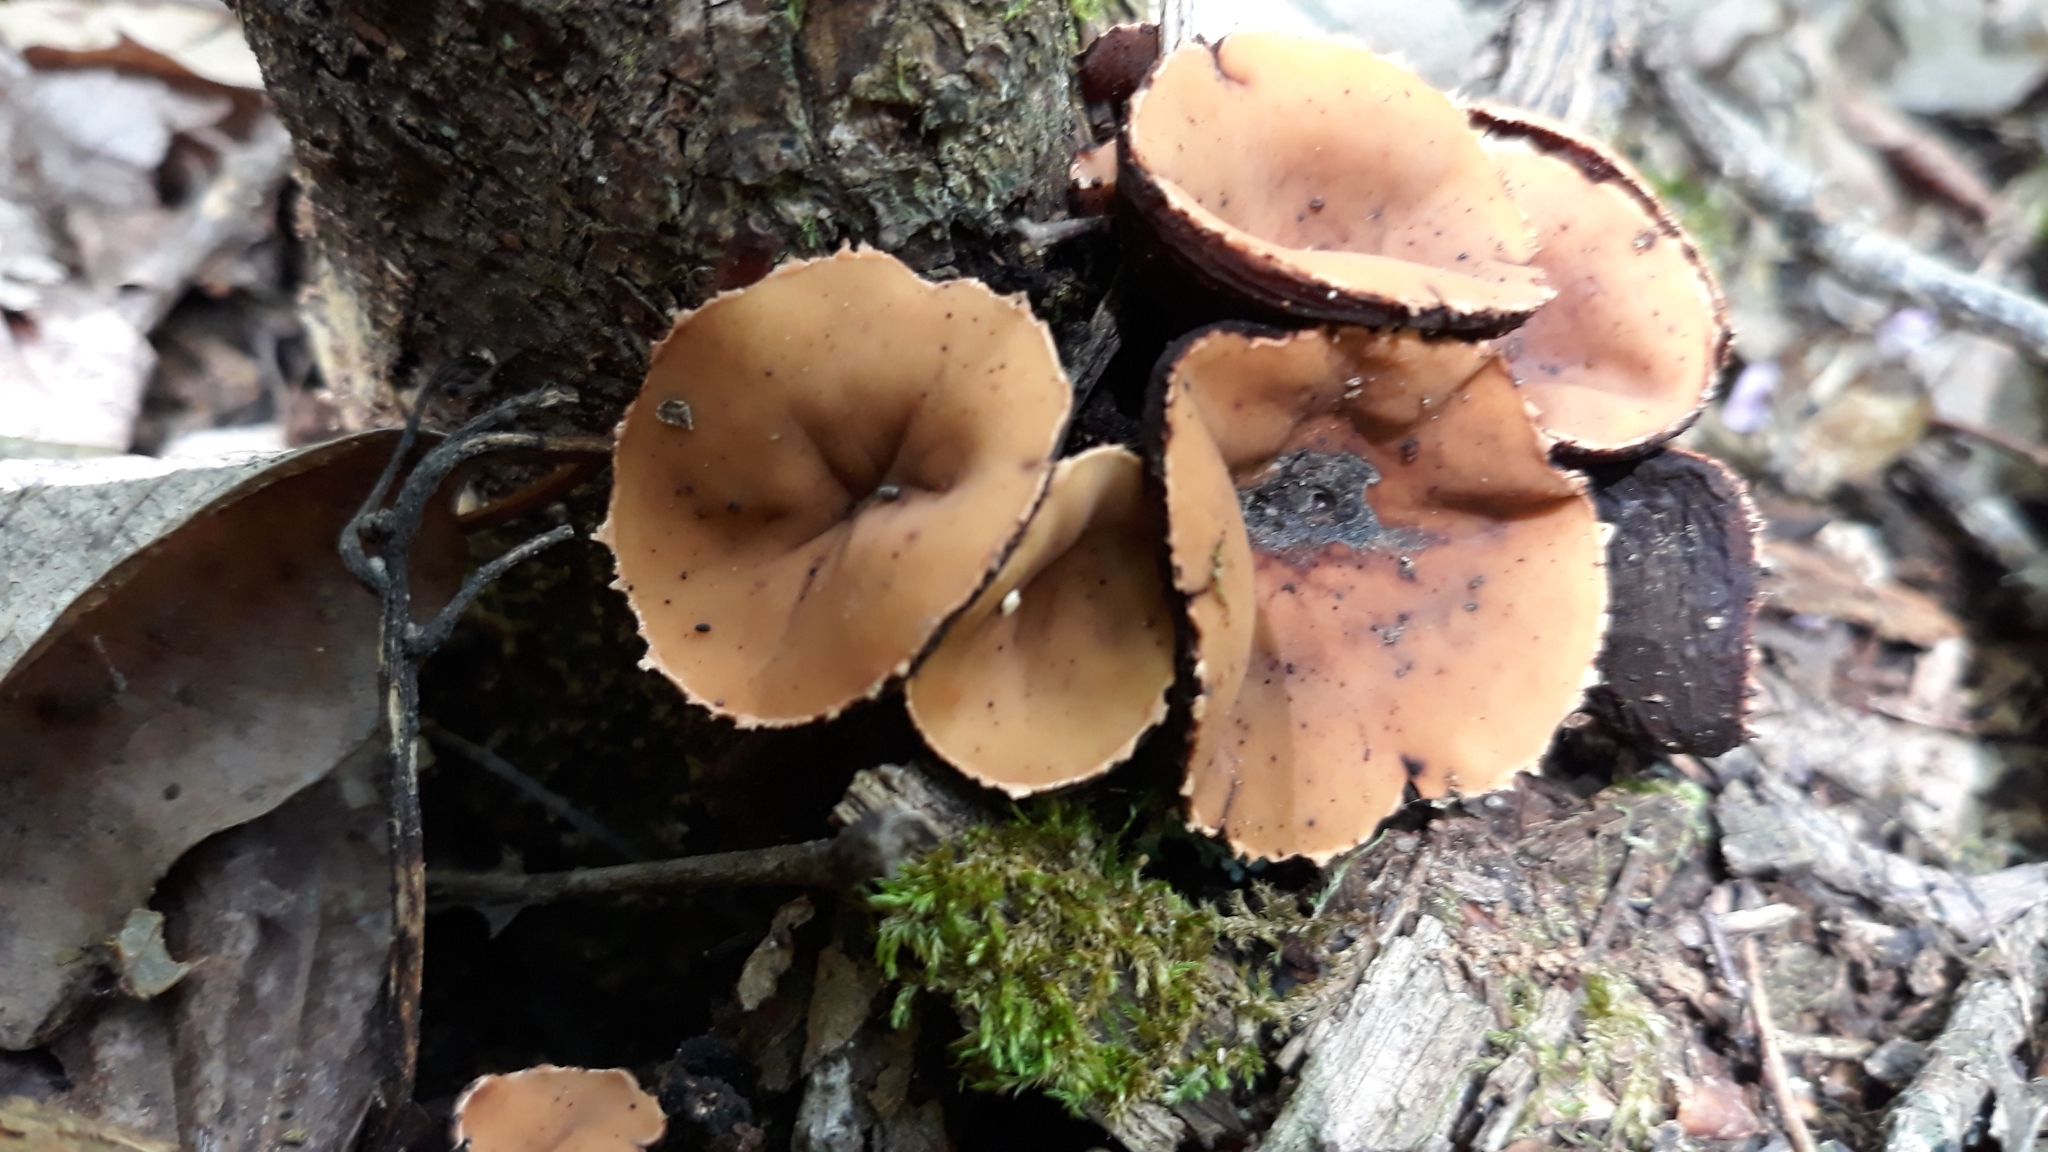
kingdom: Fungi
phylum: Ascomycota
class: Pezizomycetes
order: Pezizales
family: Sarcosomataceae
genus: Galiella
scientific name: Galiella rufa
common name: Hairy rubber cup
